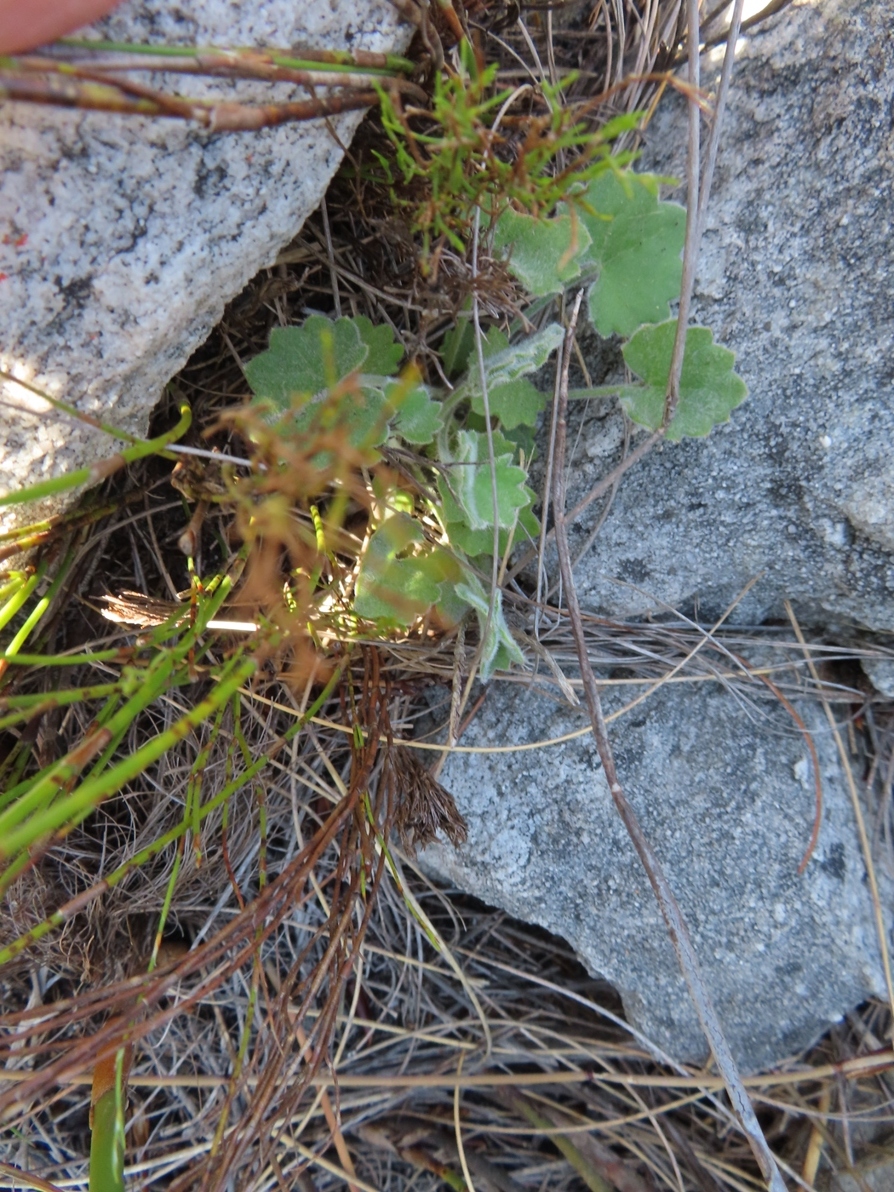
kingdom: Plantae
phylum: Tracheophyta
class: Magnoliopsida
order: Apiales
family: Apiaceae
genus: Centella
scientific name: Centella flexuosa
